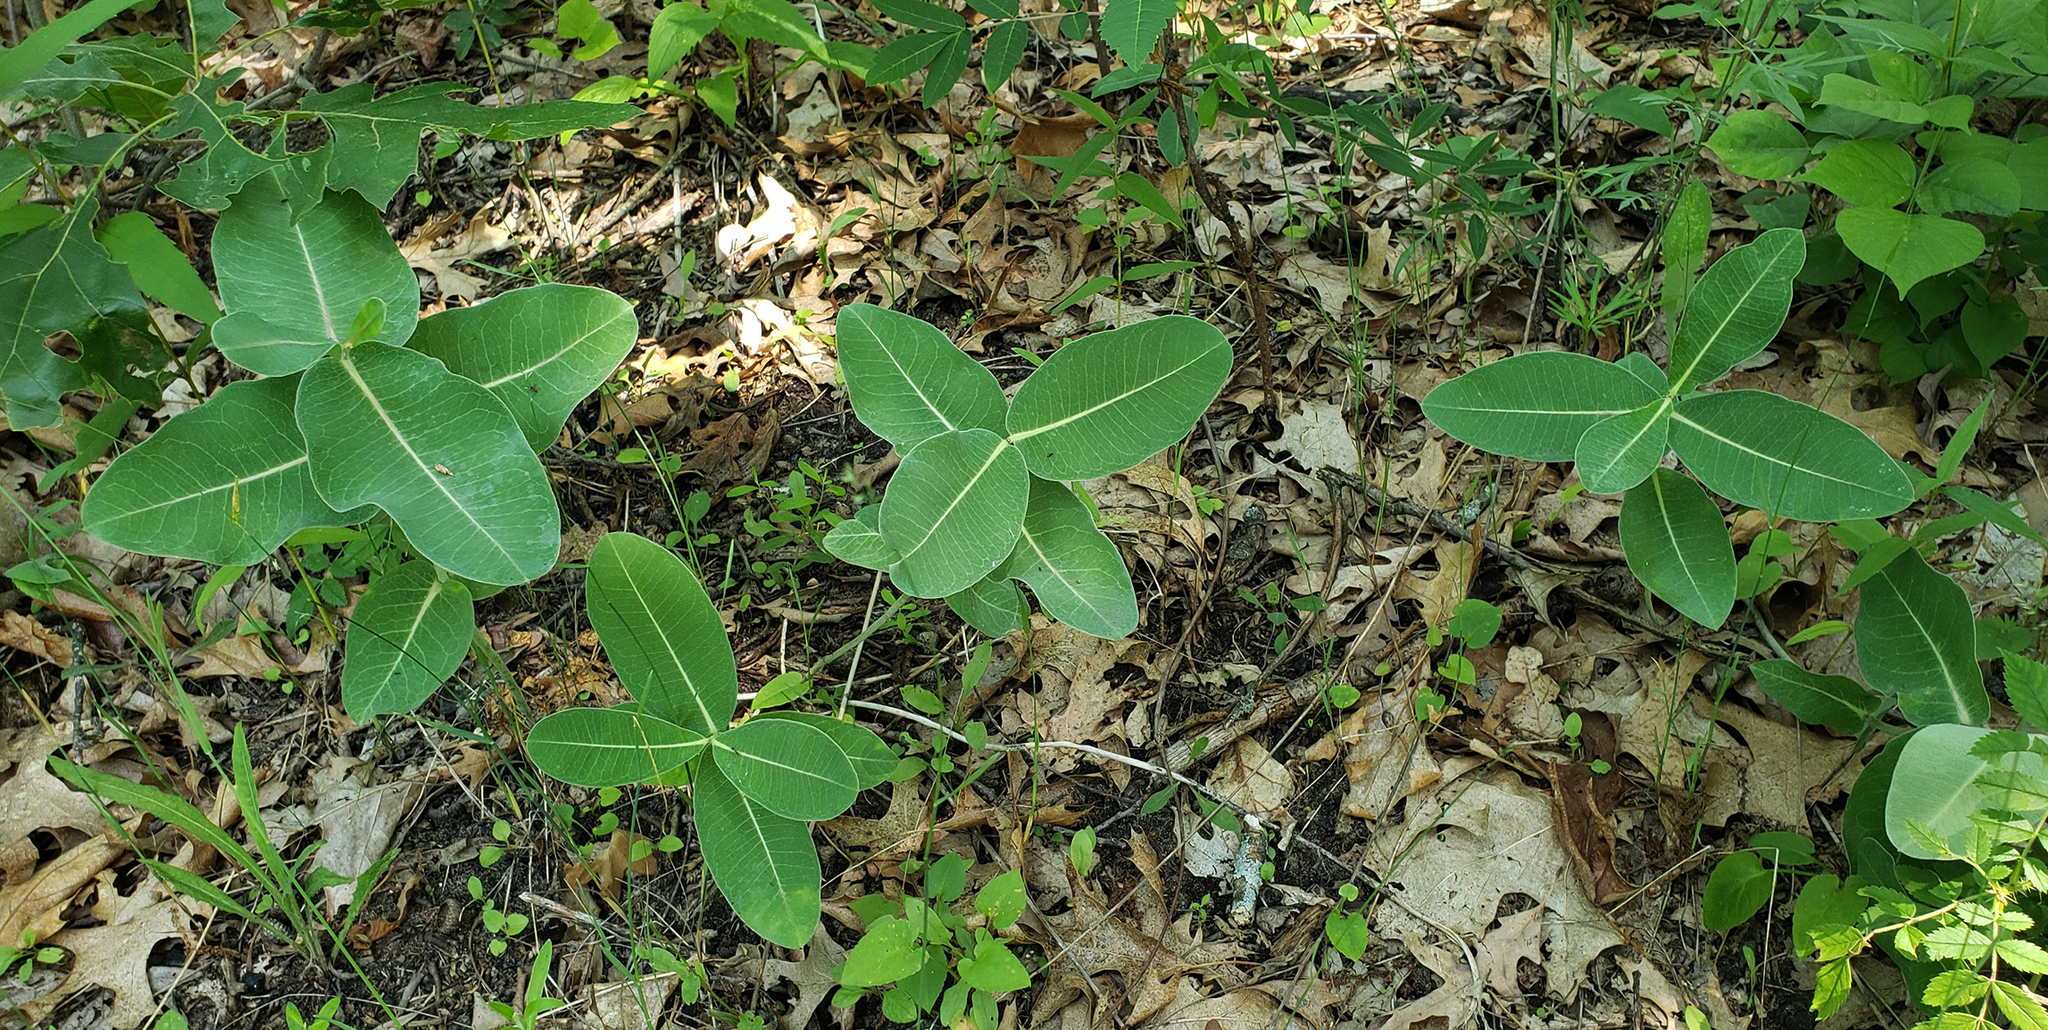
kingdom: Plantae
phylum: Tracheophyta
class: Magnoliopsida
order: Gentianales
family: Apocynaceae
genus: Asclepias
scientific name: Asclepias amplexicaulis
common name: Blunt-leaf milkweed
